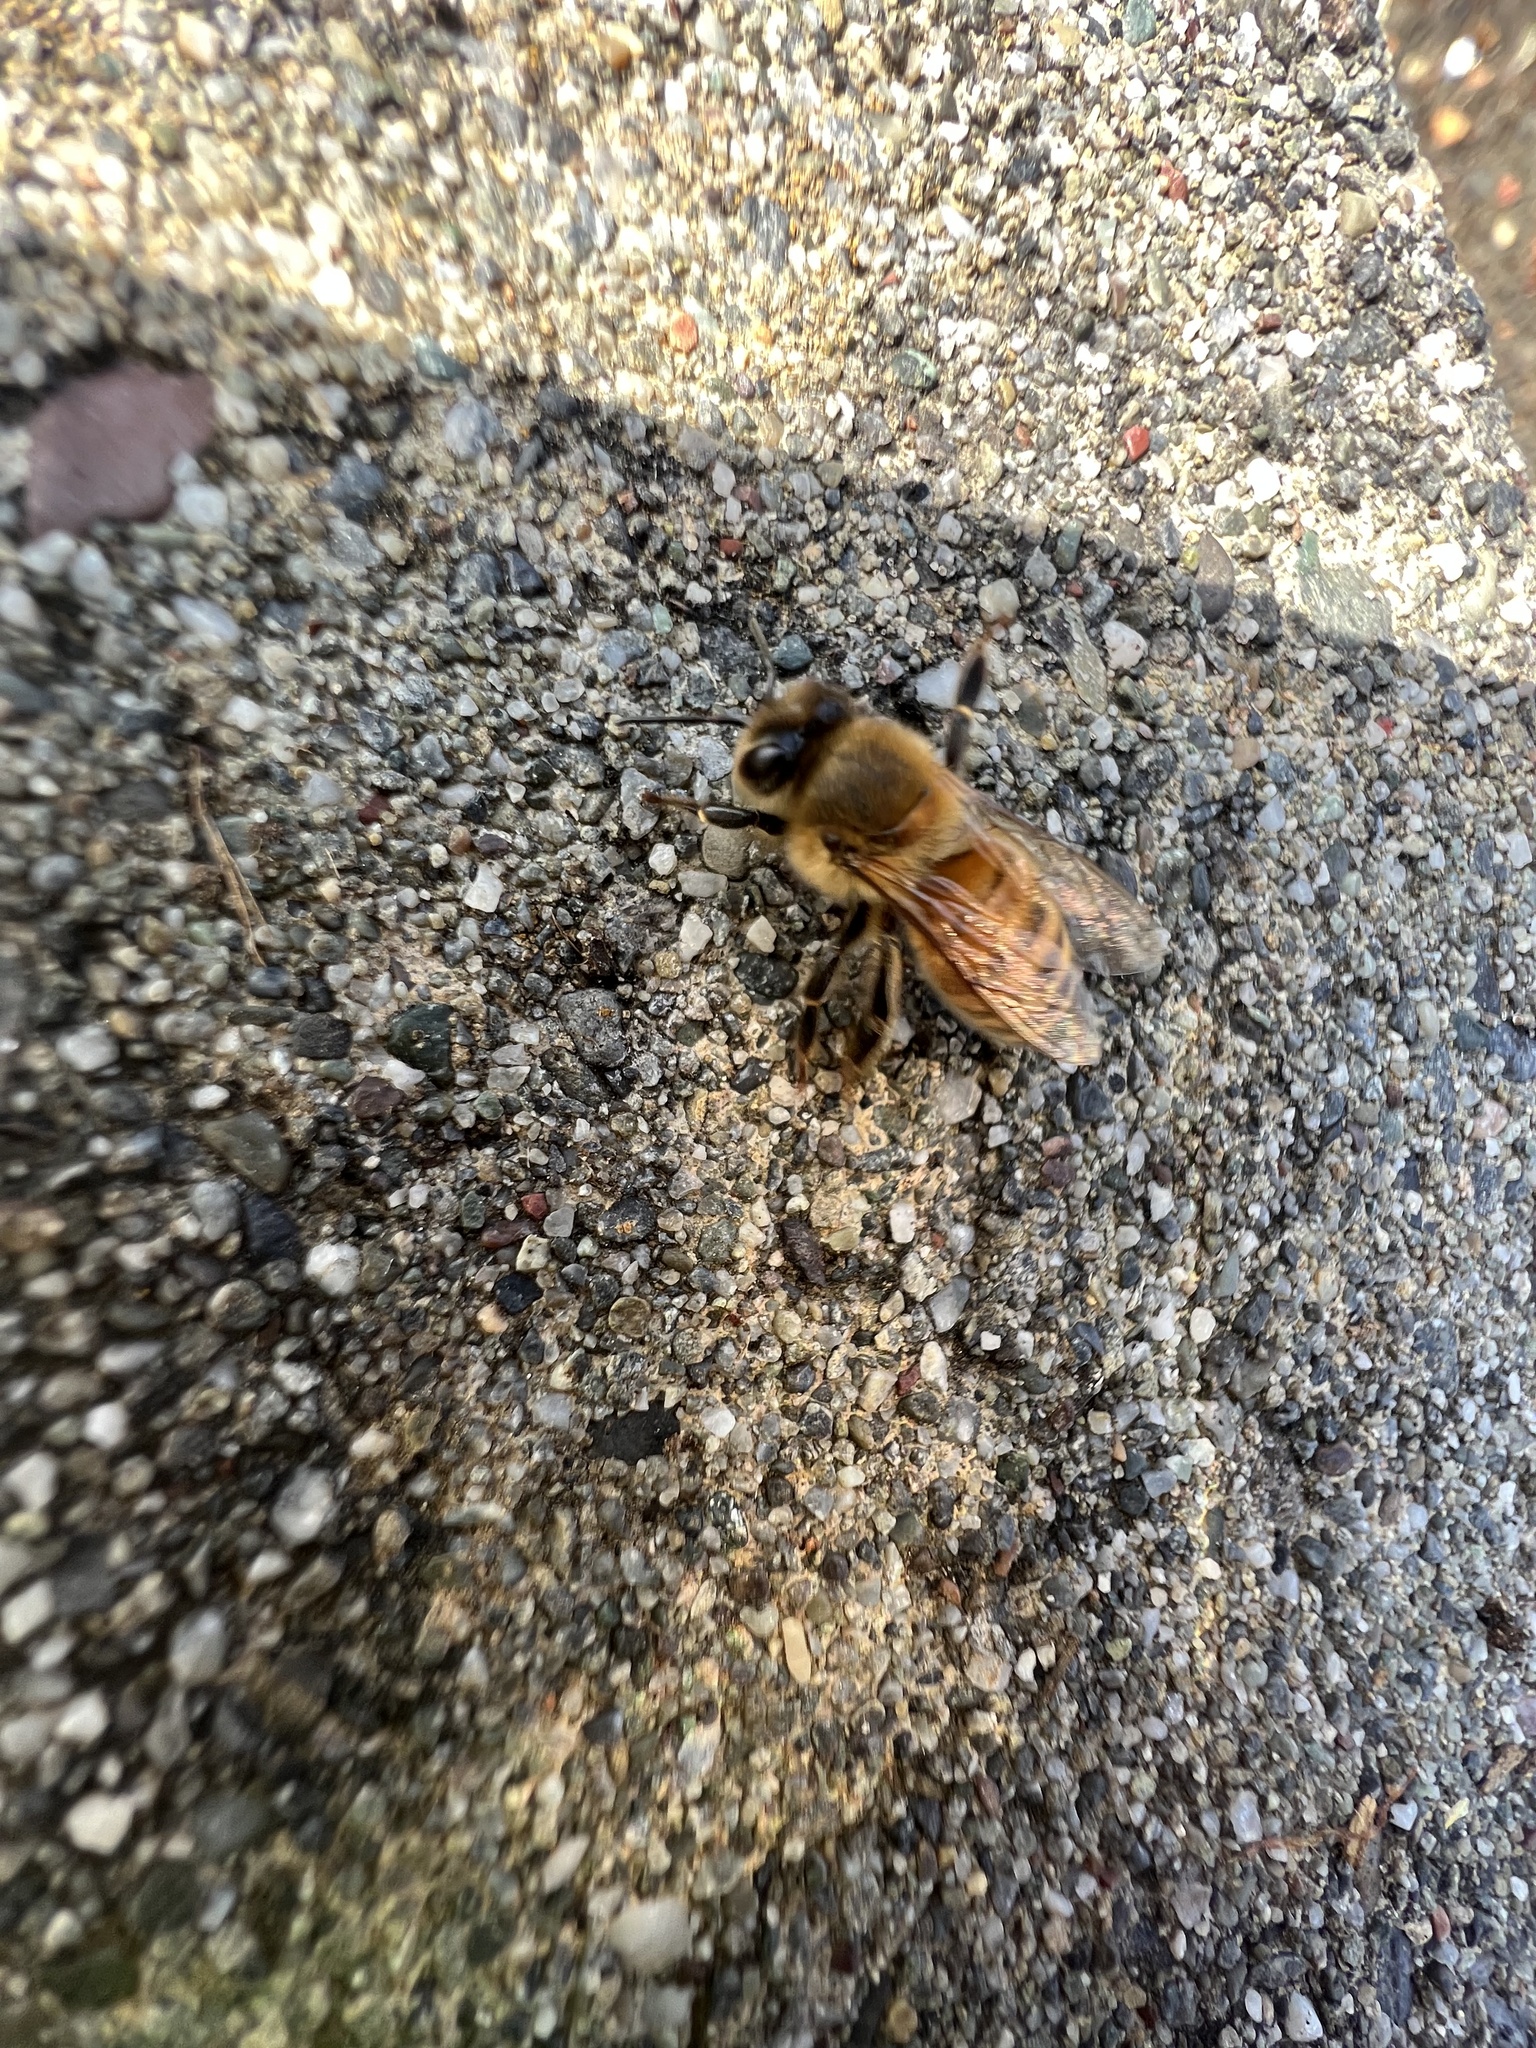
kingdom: Animalia
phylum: Arthropoda
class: Insecta
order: Hymenoptera
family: Apidae
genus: Apis
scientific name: Apis mellifera
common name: Honey bee
